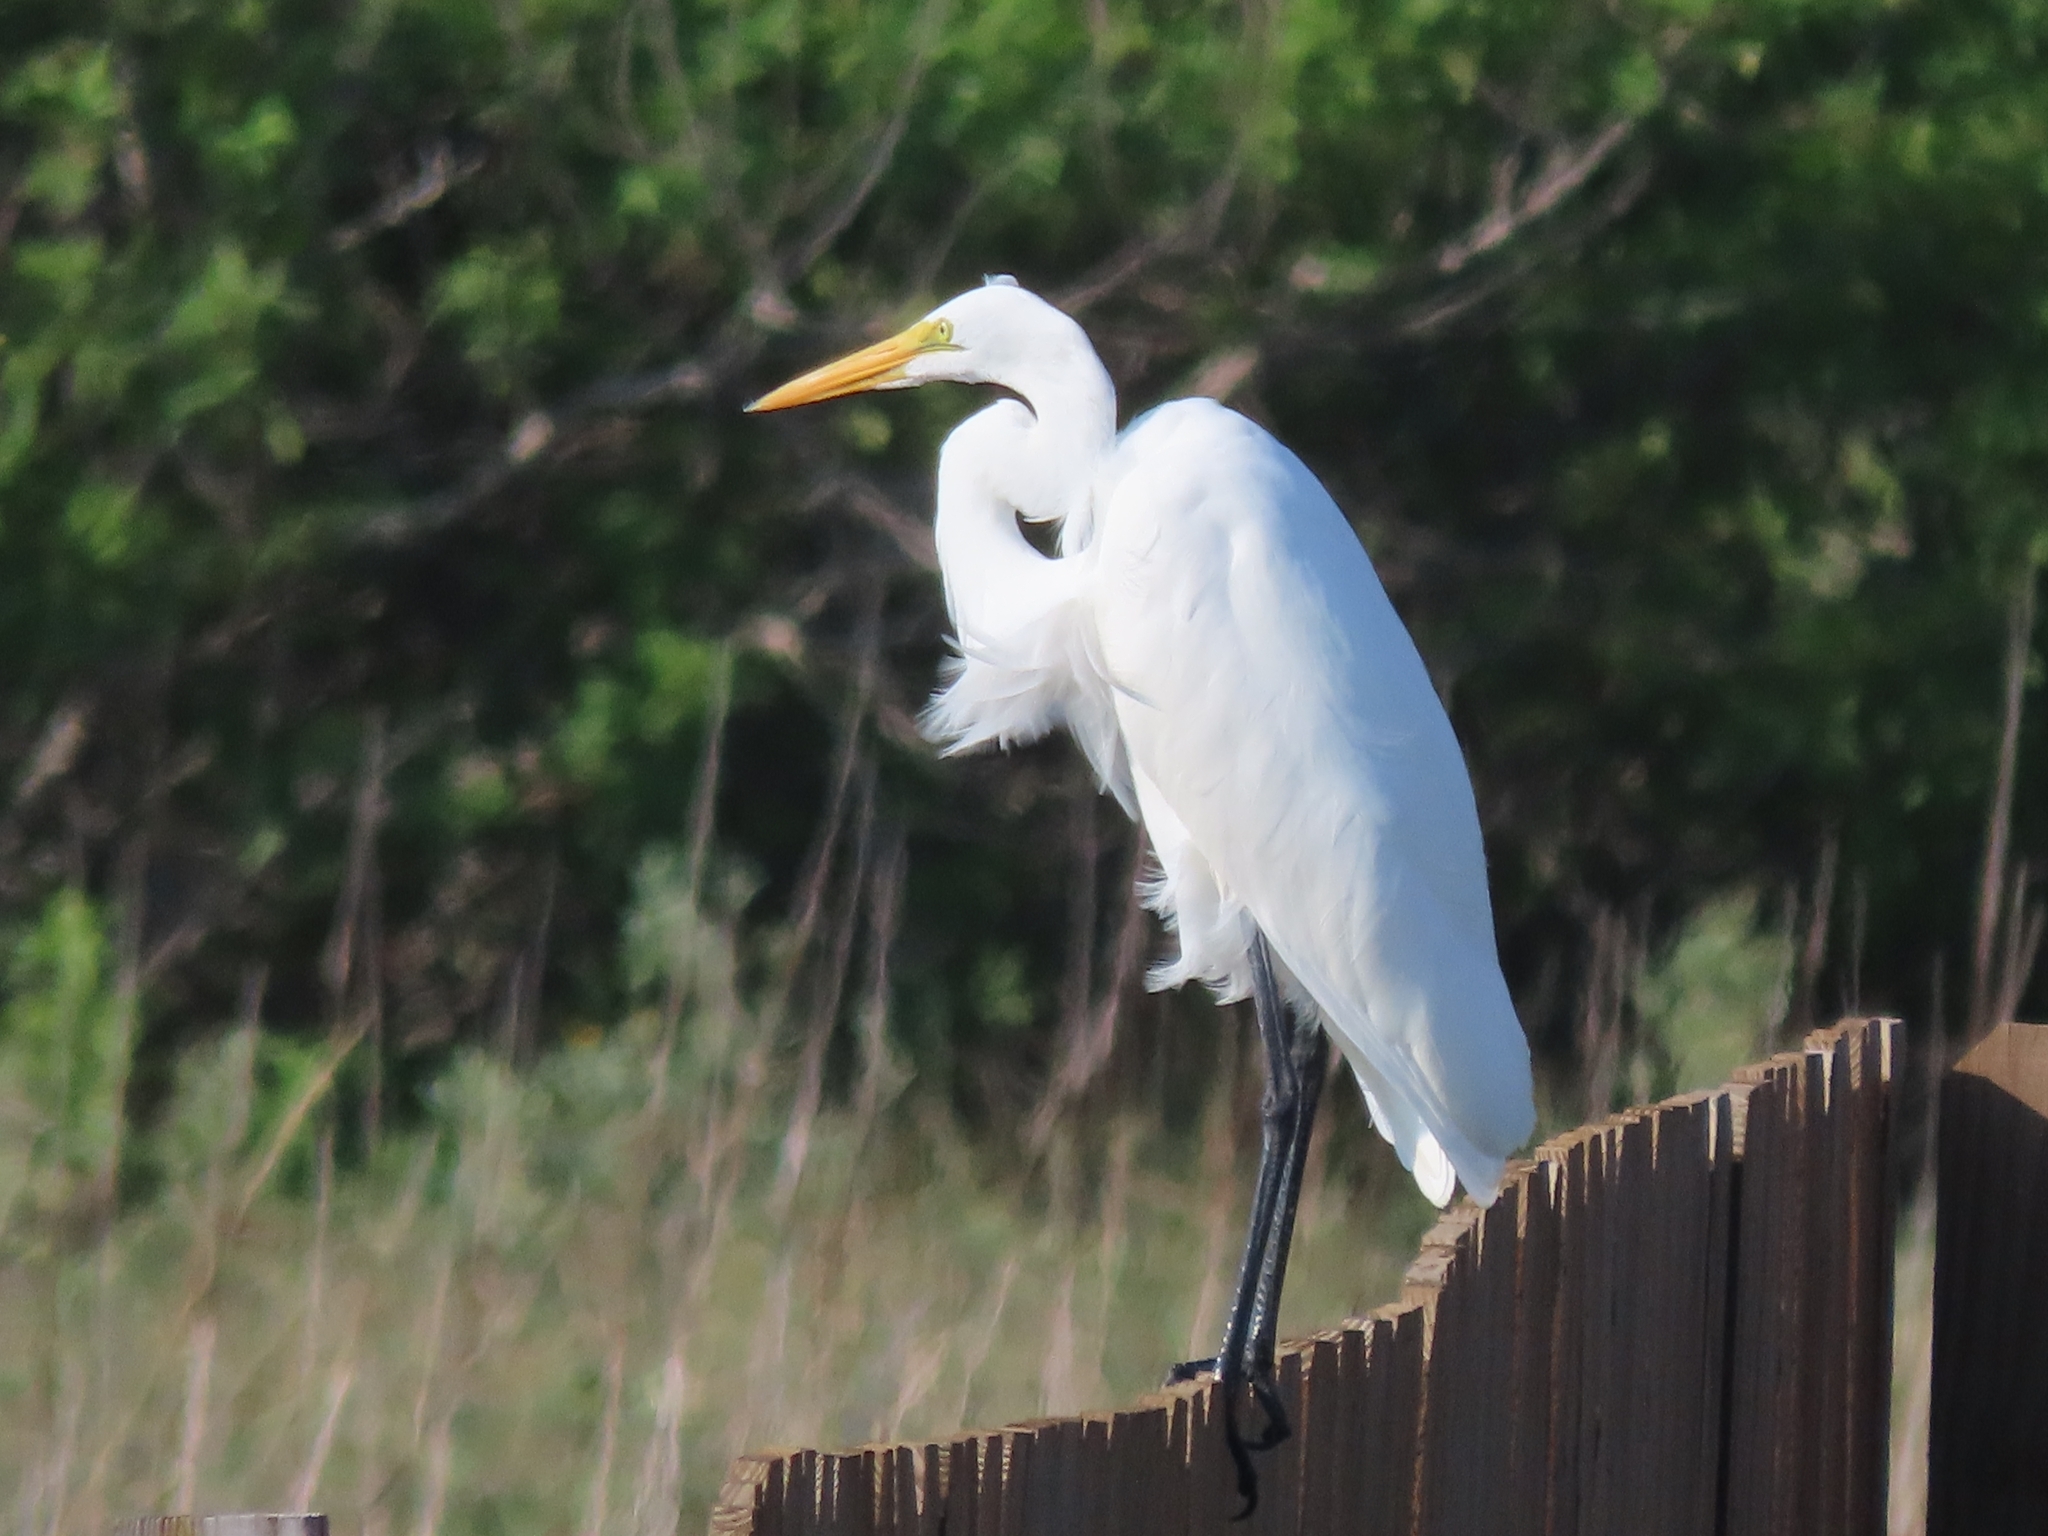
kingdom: Animalia
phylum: Chordata
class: Aves
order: Pelecaniformes
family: Ardeidae
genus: Ardea
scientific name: Ardea alba
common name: Great egret
